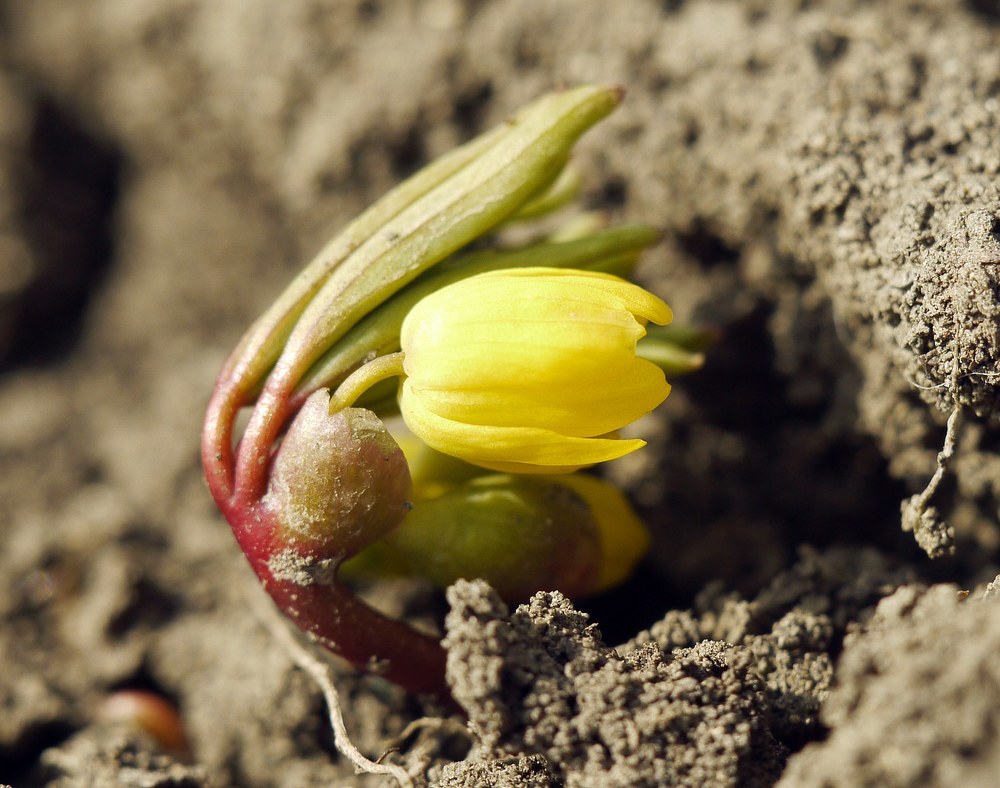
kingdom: Plantae
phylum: Tracheophyta
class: Magnoliopsida
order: Ranunculales
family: Berberidaceae
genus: Gymnospermium
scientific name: Gymnospermium odessanum
